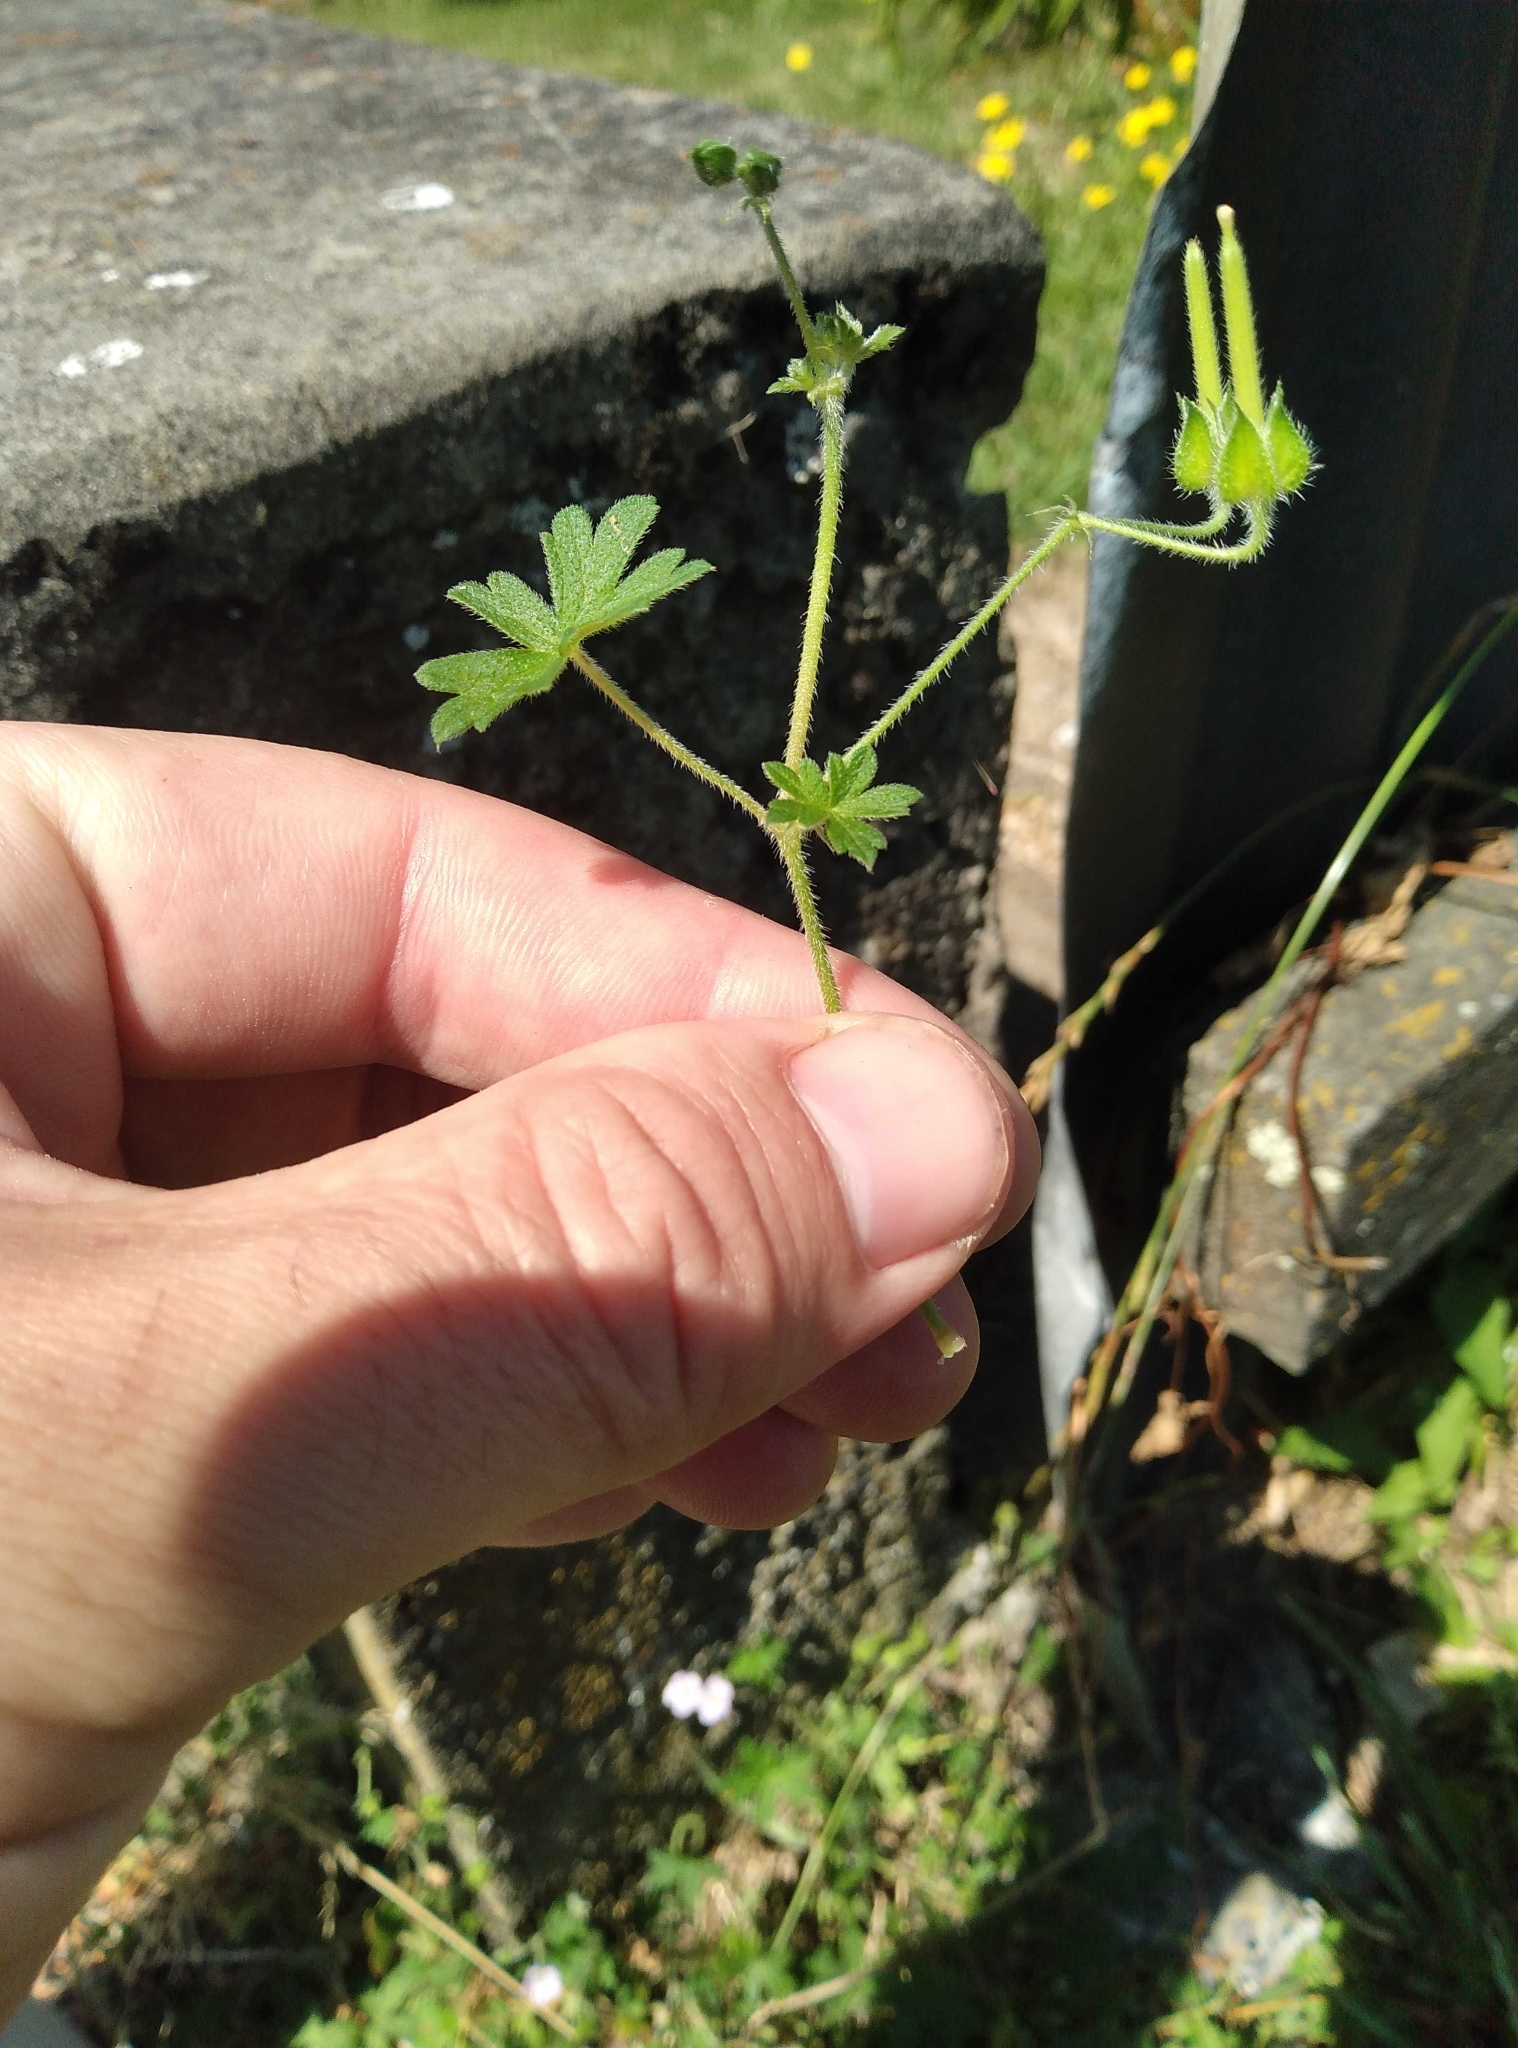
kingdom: Plantae
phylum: Tracheophyta
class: Magnoliopsida
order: Geraniales
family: Geraniaceae
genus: Geranium
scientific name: Geranium solanderi
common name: Solander's geranium
